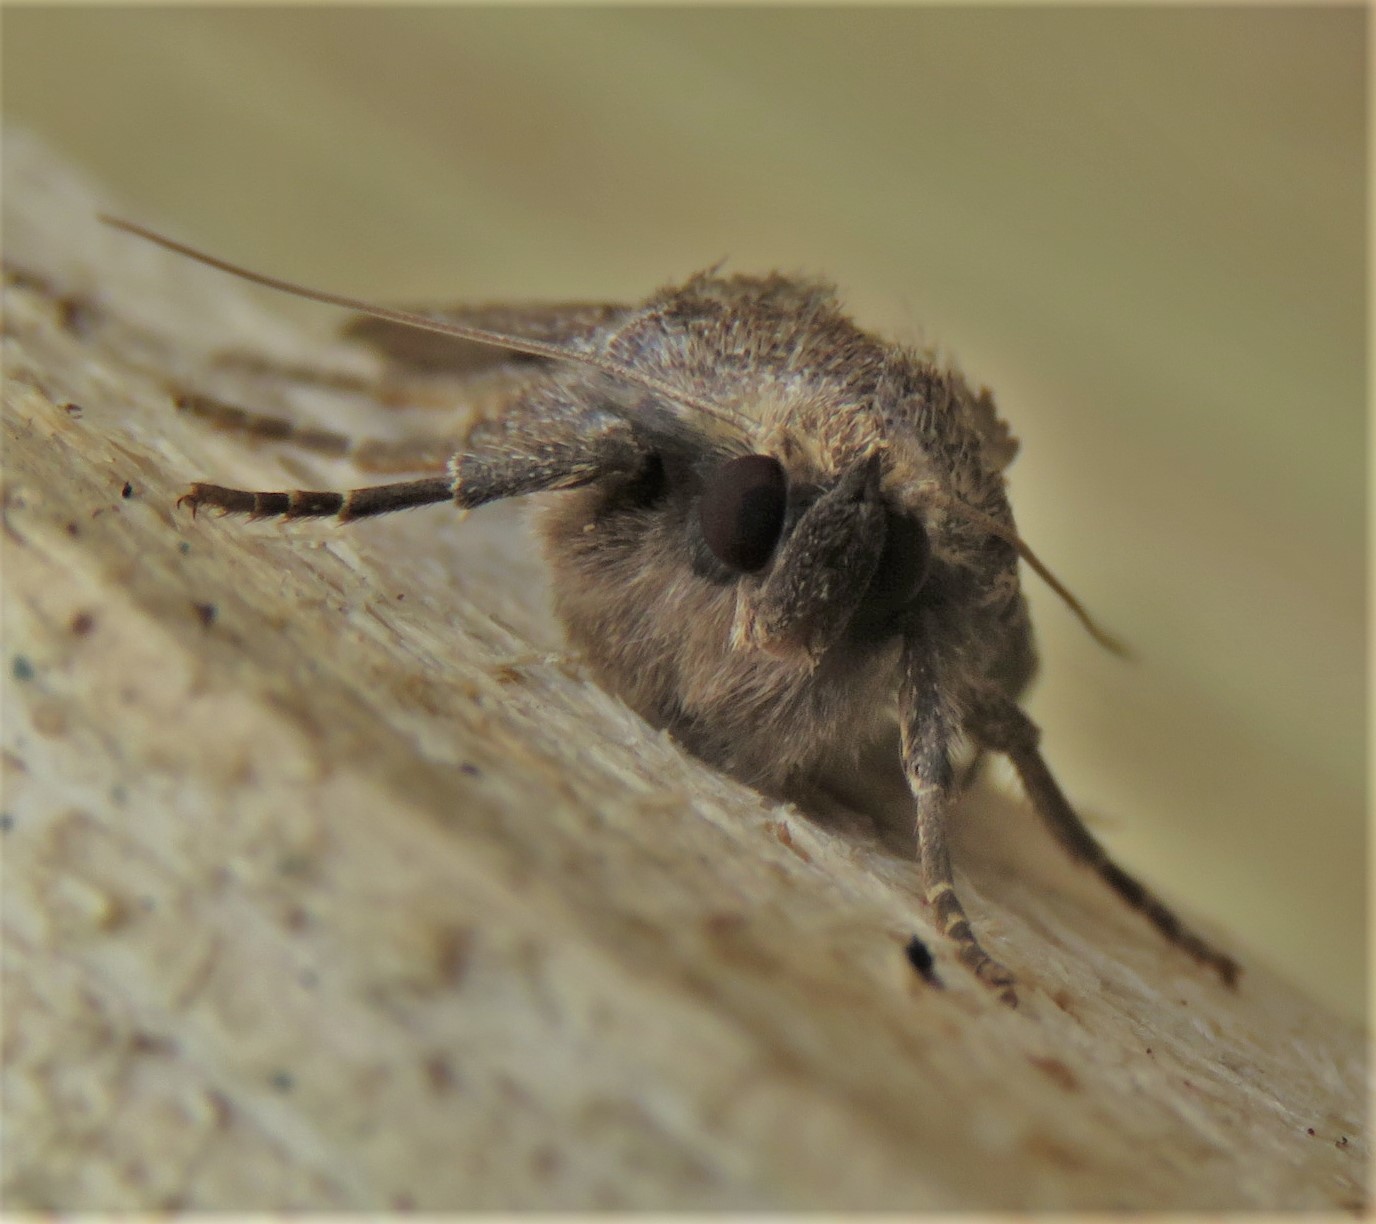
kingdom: Animalia
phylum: Arthropoda
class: Insecta
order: Lepidoptera
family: Noctuidae
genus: Amphipyra
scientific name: Amphipyra tragopoginis
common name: Mouse moth
